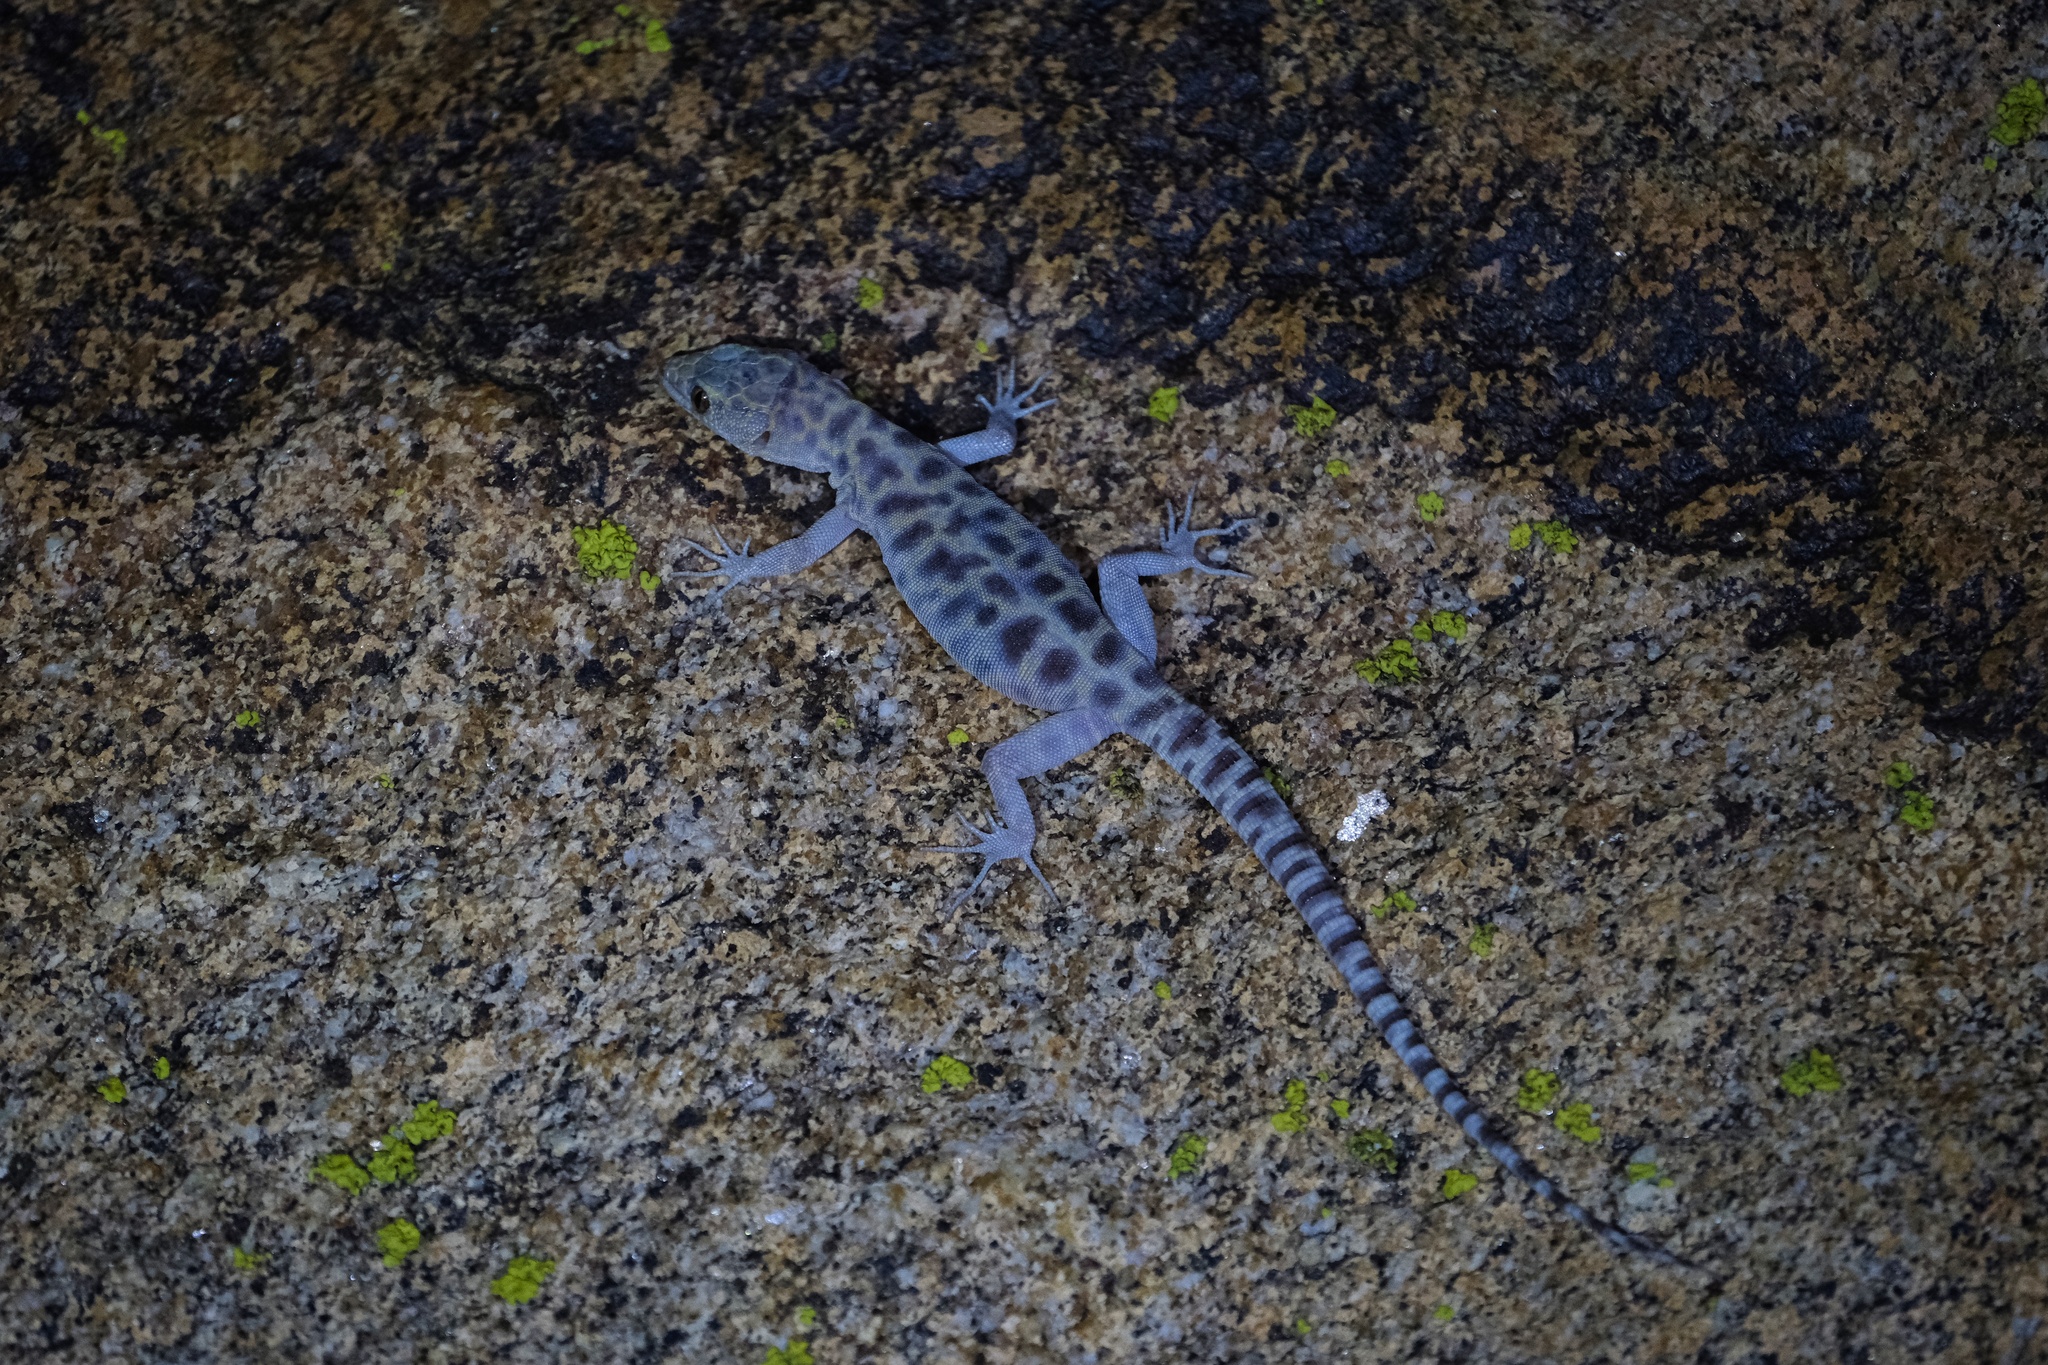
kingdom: Animalia
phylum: Chordata
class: Squamata
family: Xantusiidae
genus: Xantusia
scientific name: Xantusia henshawi
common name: Granite night lizard
